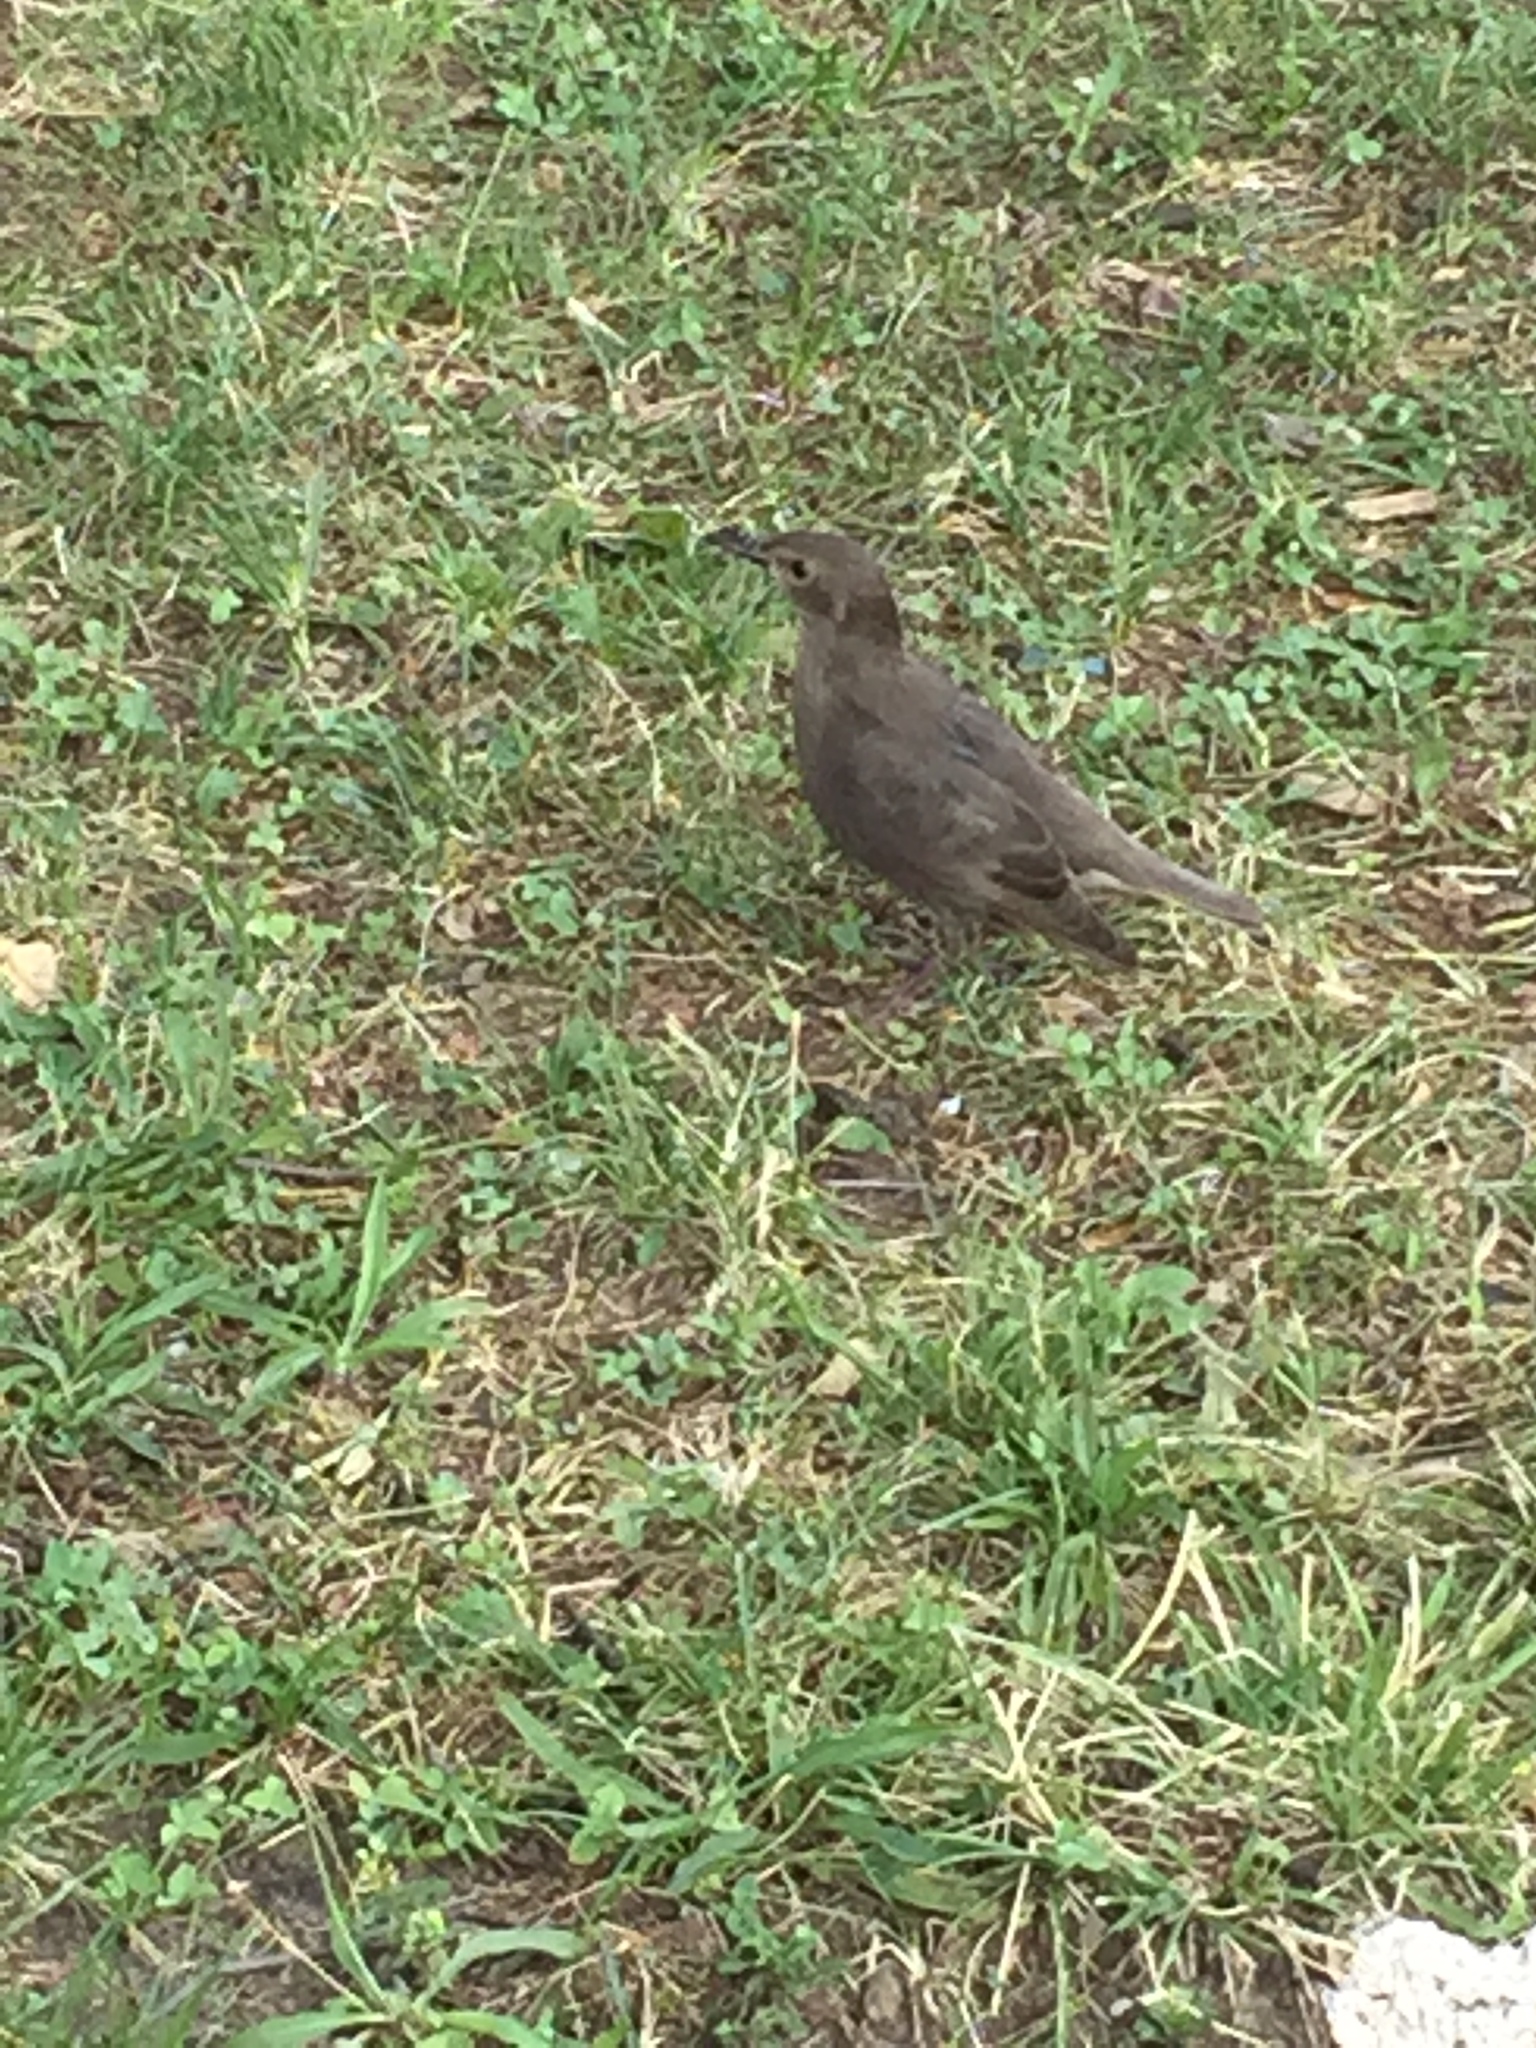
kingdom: Animalia
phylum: Chordata
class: Aves
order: Passeriformes
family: Sturnidae
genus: Sturnus
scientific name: Sturnus vulgaris
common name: Common starling
